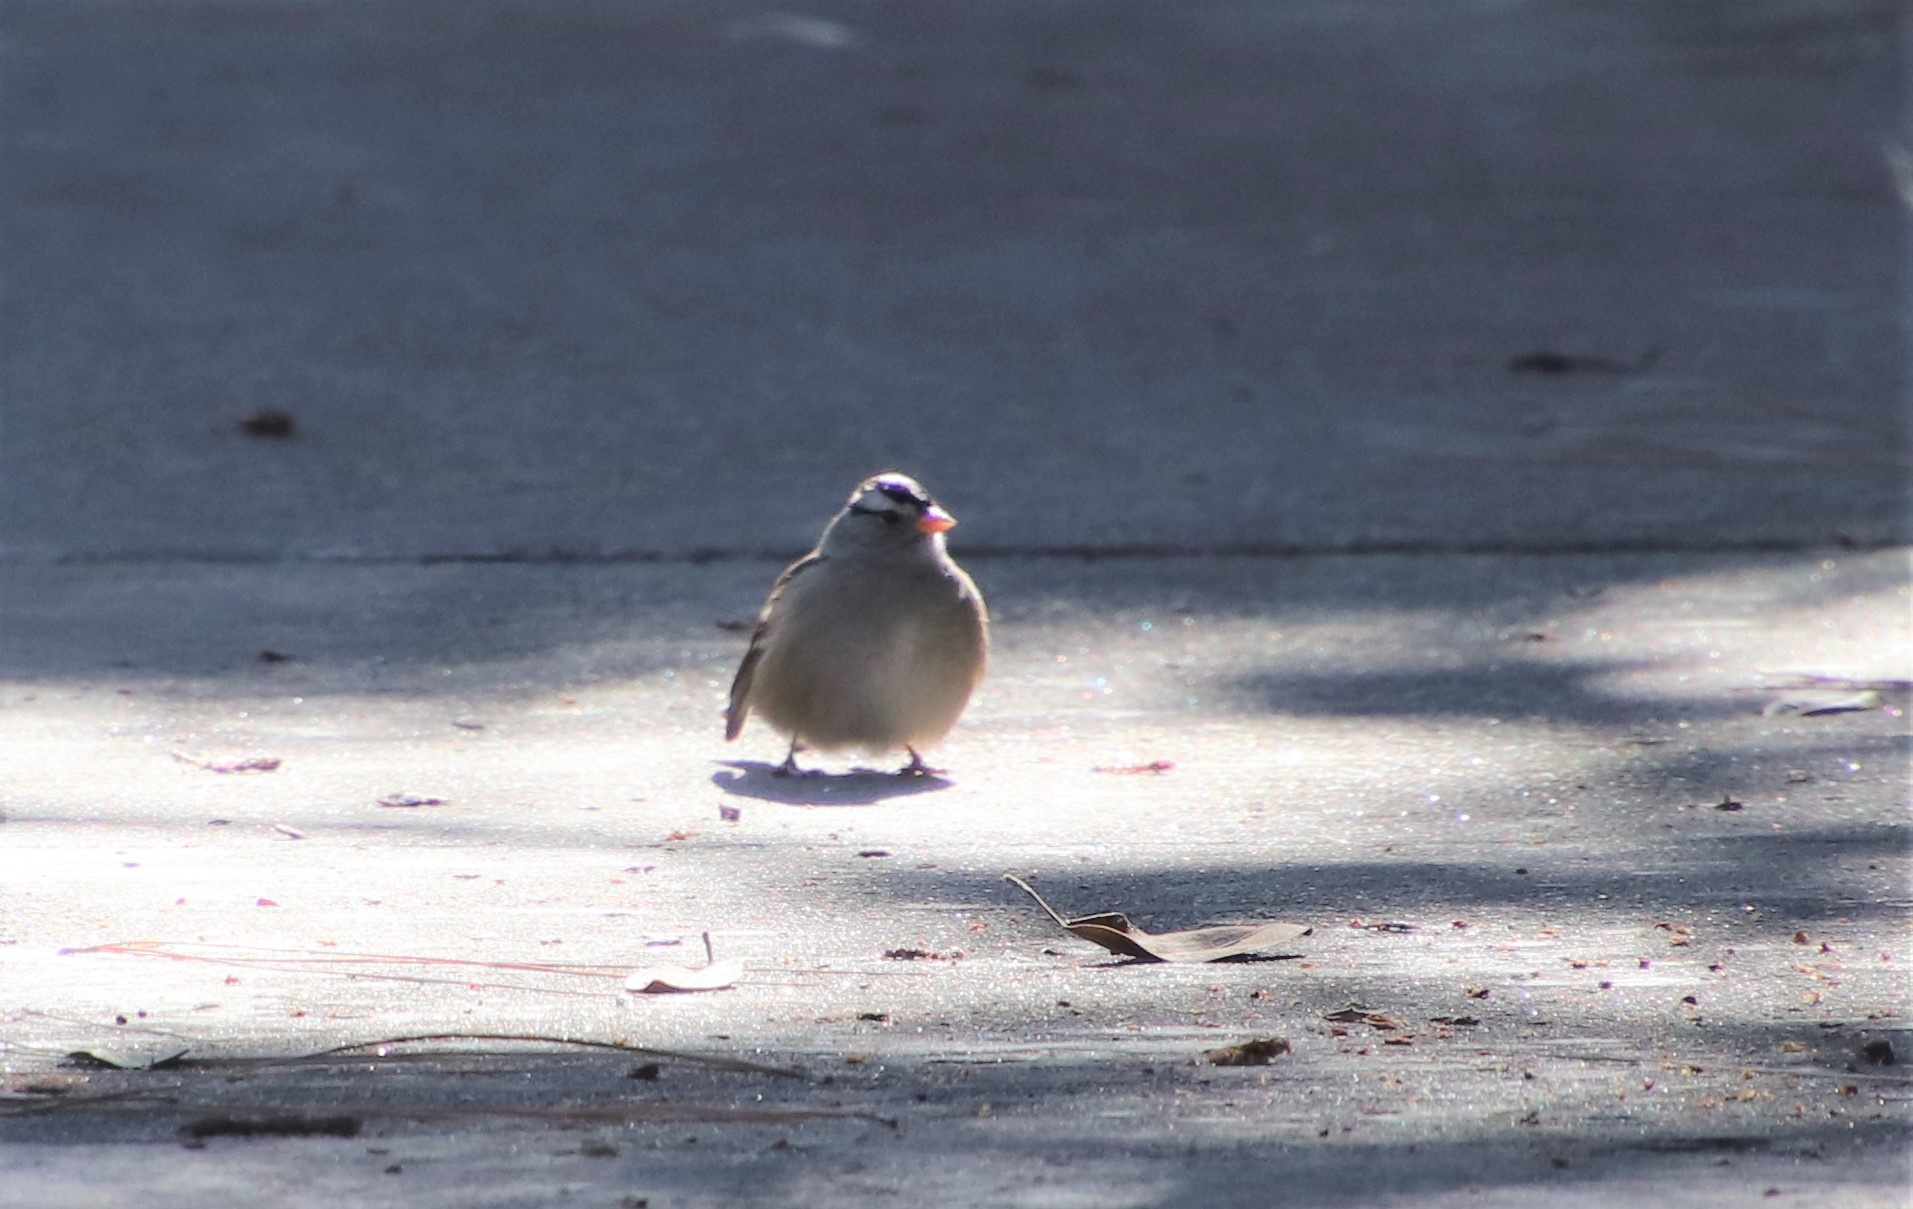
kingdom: Animalia
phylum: Chordata
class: Aves
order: Passeriformes
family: Passerellidae
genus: Zonotrichia
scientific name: Zonotrichia leucophrys
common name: White-crowned sparrow
